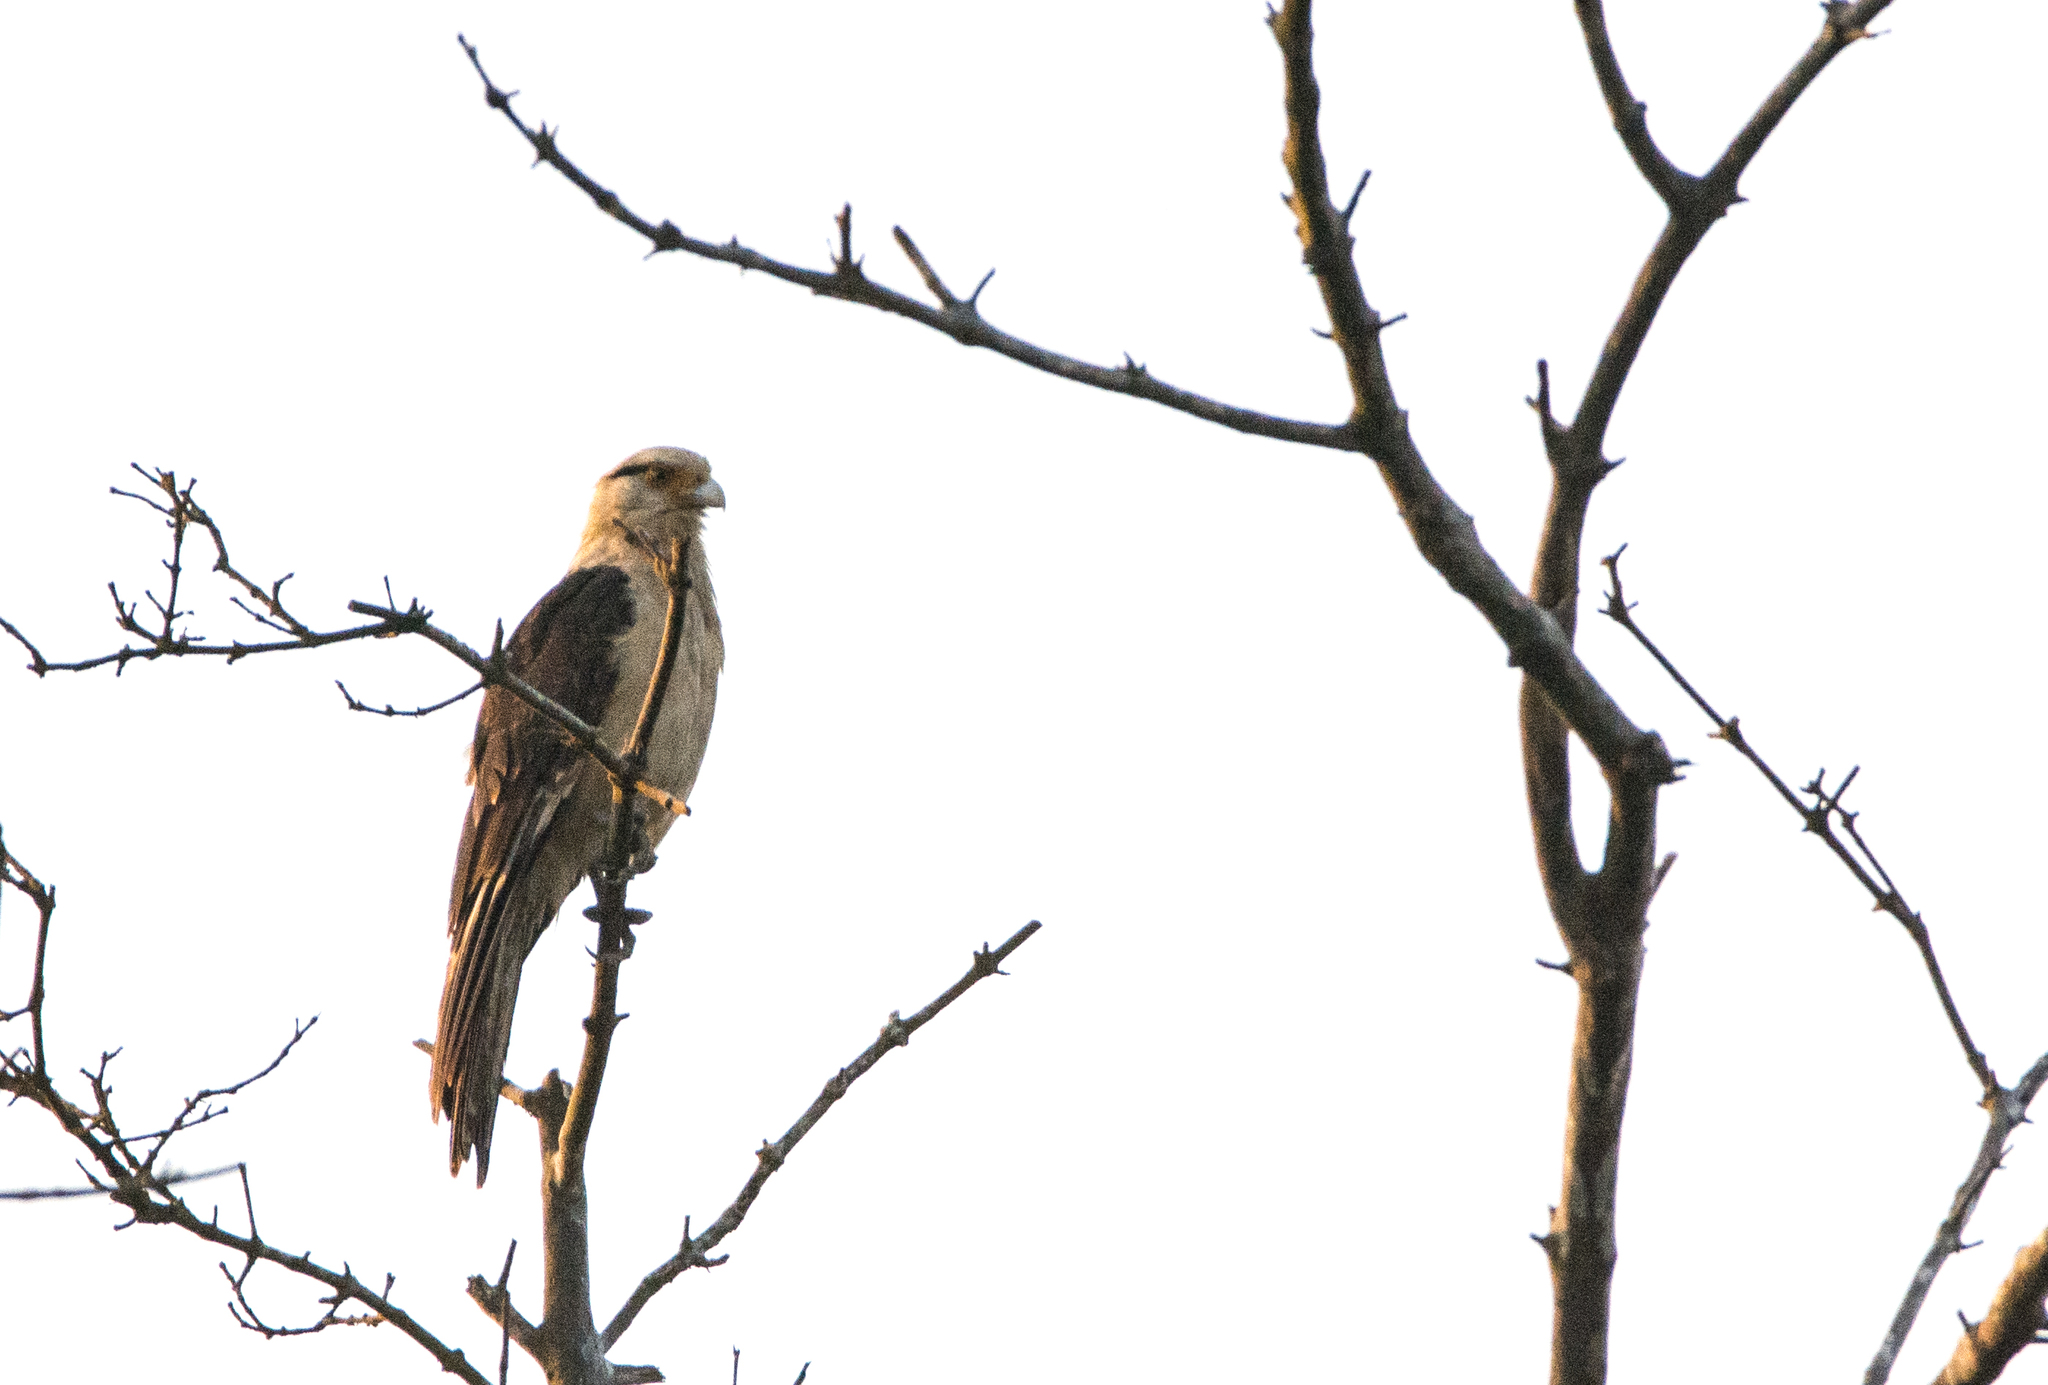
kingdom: Animalia
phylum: Chordata
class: Aves
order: Falconiformes
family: Falconidae
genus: Daptrius
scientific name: Daptrius
